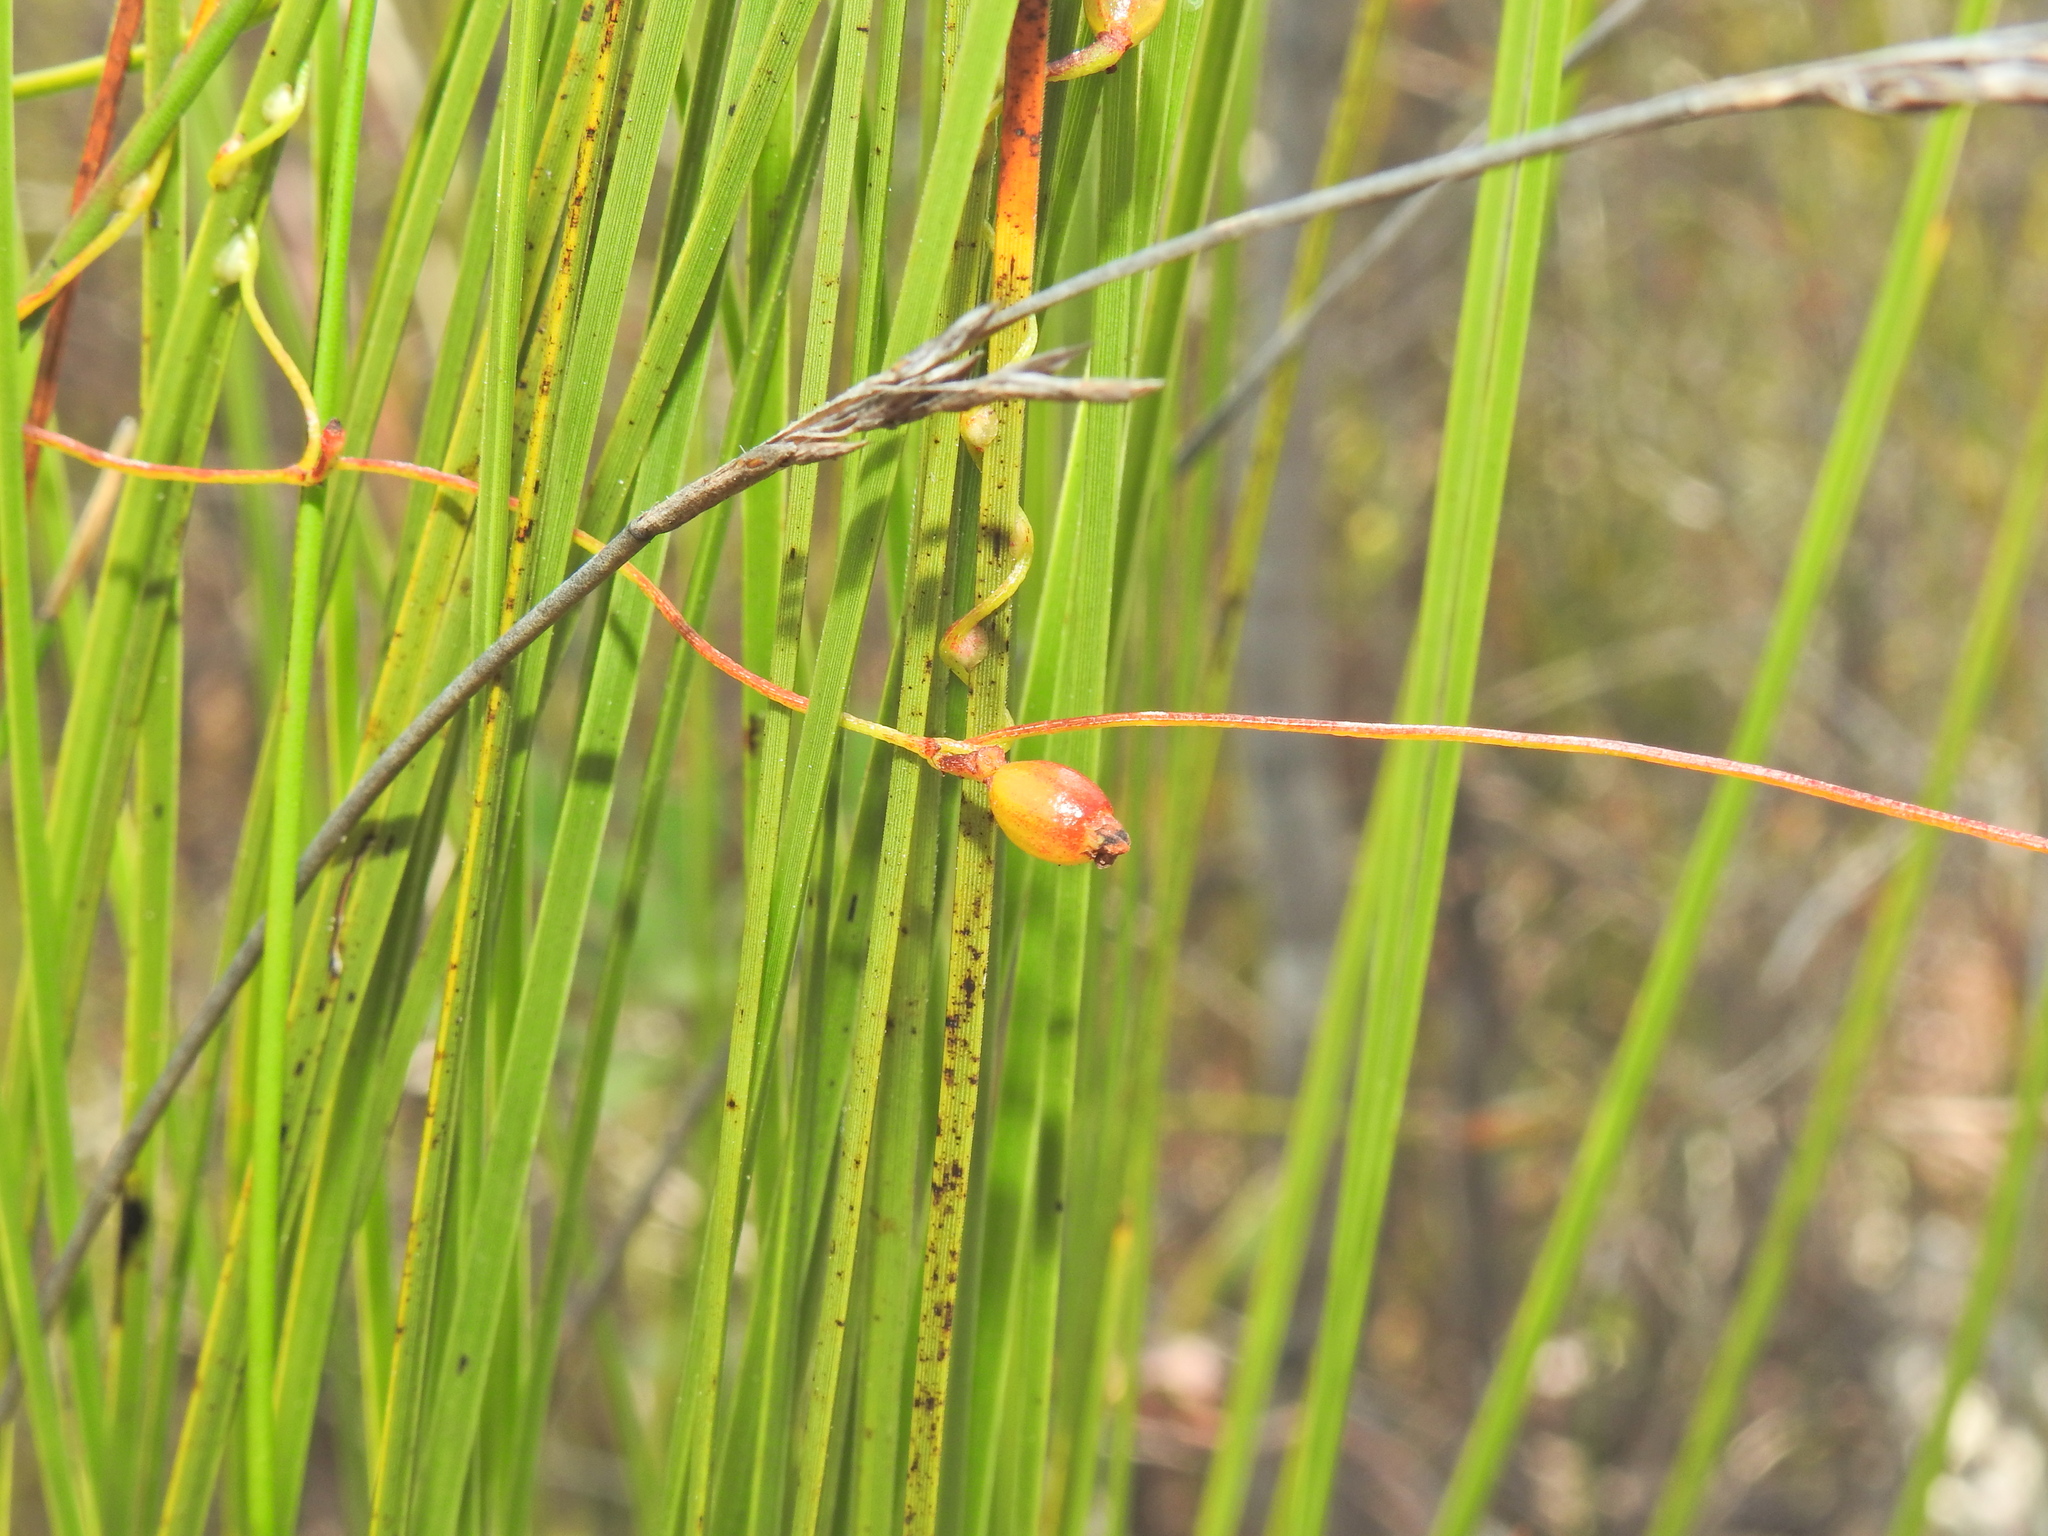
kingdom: Plantae
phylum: Tracheophyta
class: Magnoliopsida
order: Laurales
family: Lauraceae
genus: Cassytha
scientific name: Cassytha glabella
